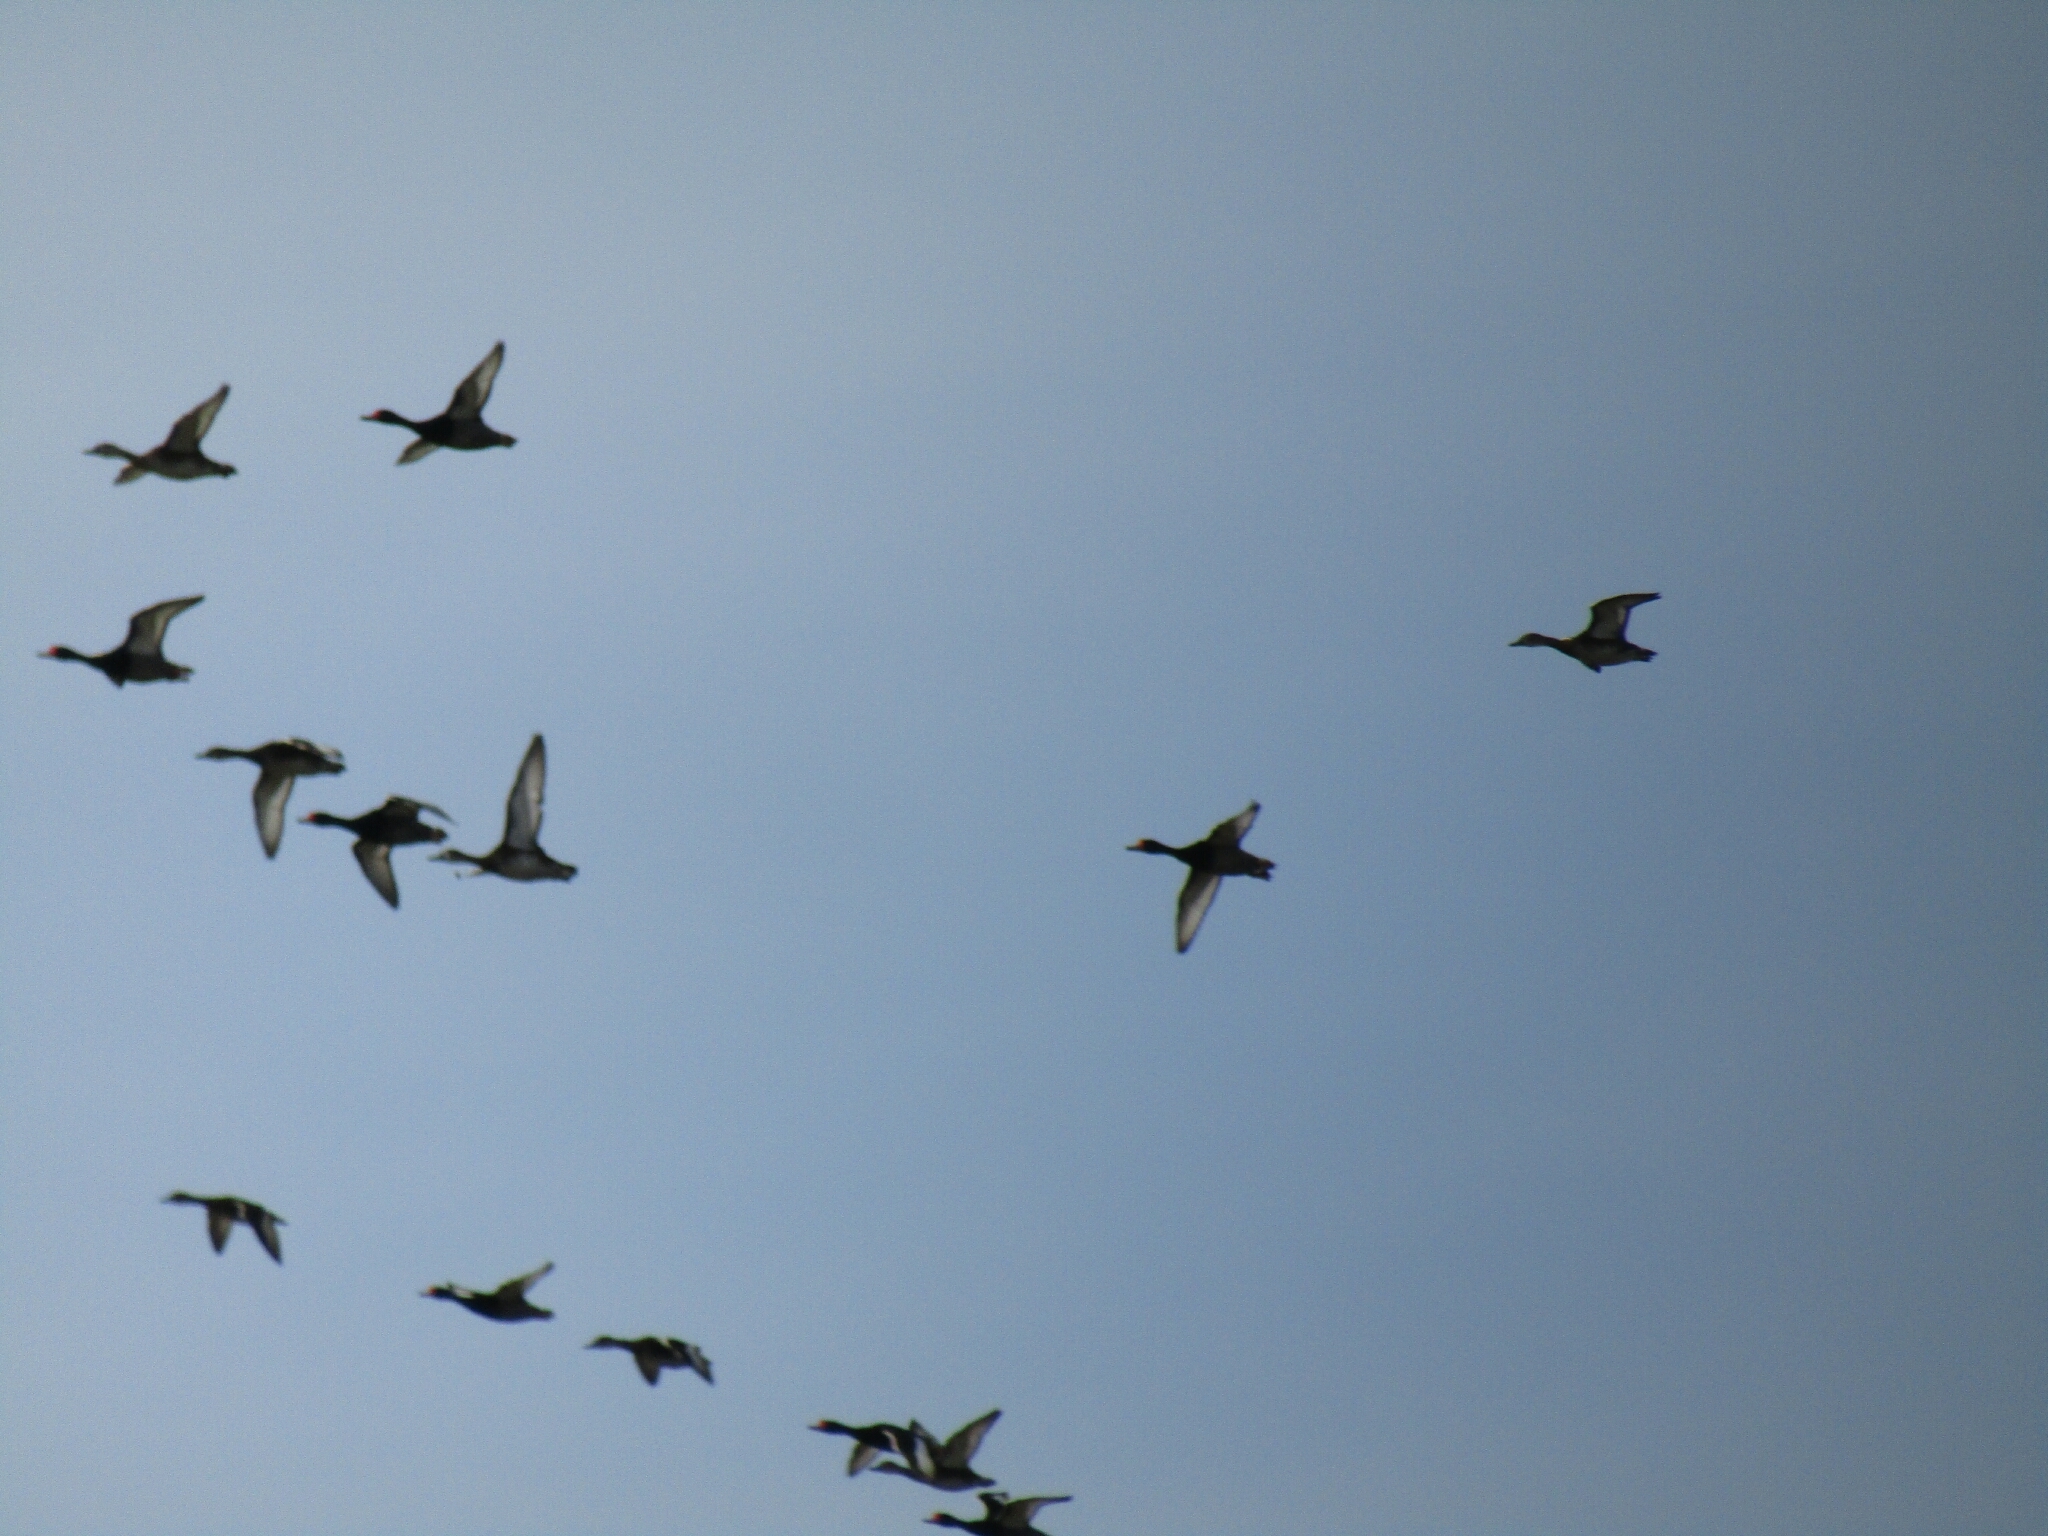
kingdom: Animalia
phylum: Chordata
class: Aves
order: Anseriformes
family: Anatidae
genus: Netta
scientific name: Netta peposaca
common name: Rosy-billed pochard
